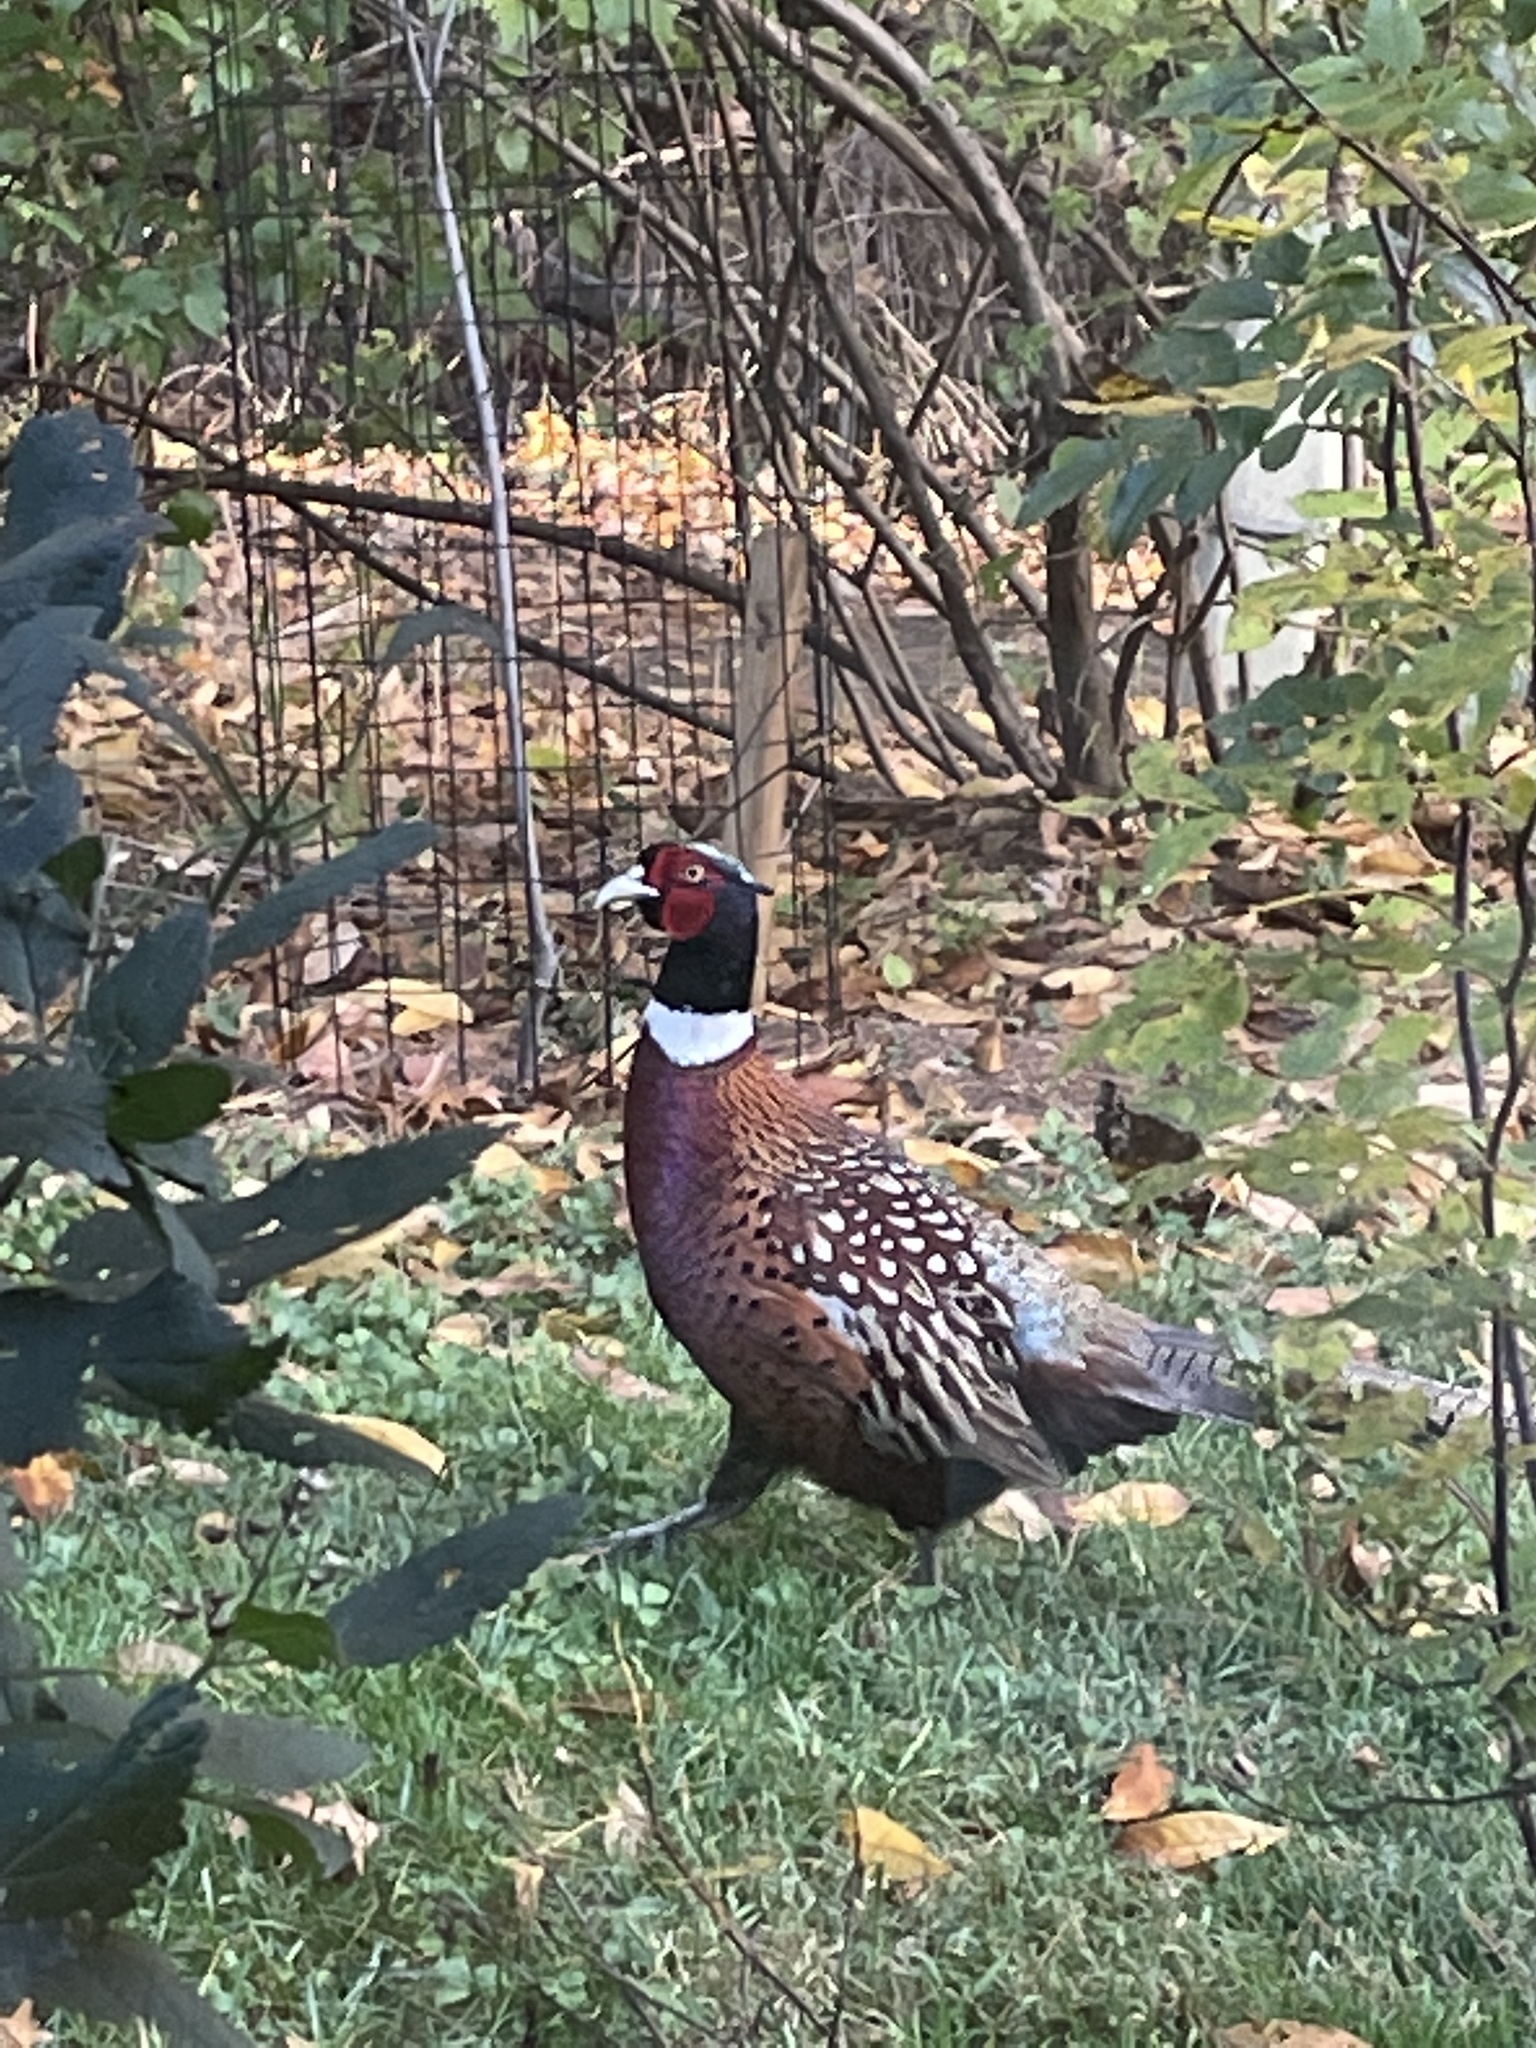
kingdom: Animalia
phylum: Chordata
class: Aves
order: Galliformes
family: Phasianidae
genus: Phasianus
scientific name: Phasianus colchicus
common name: Common pheasant
